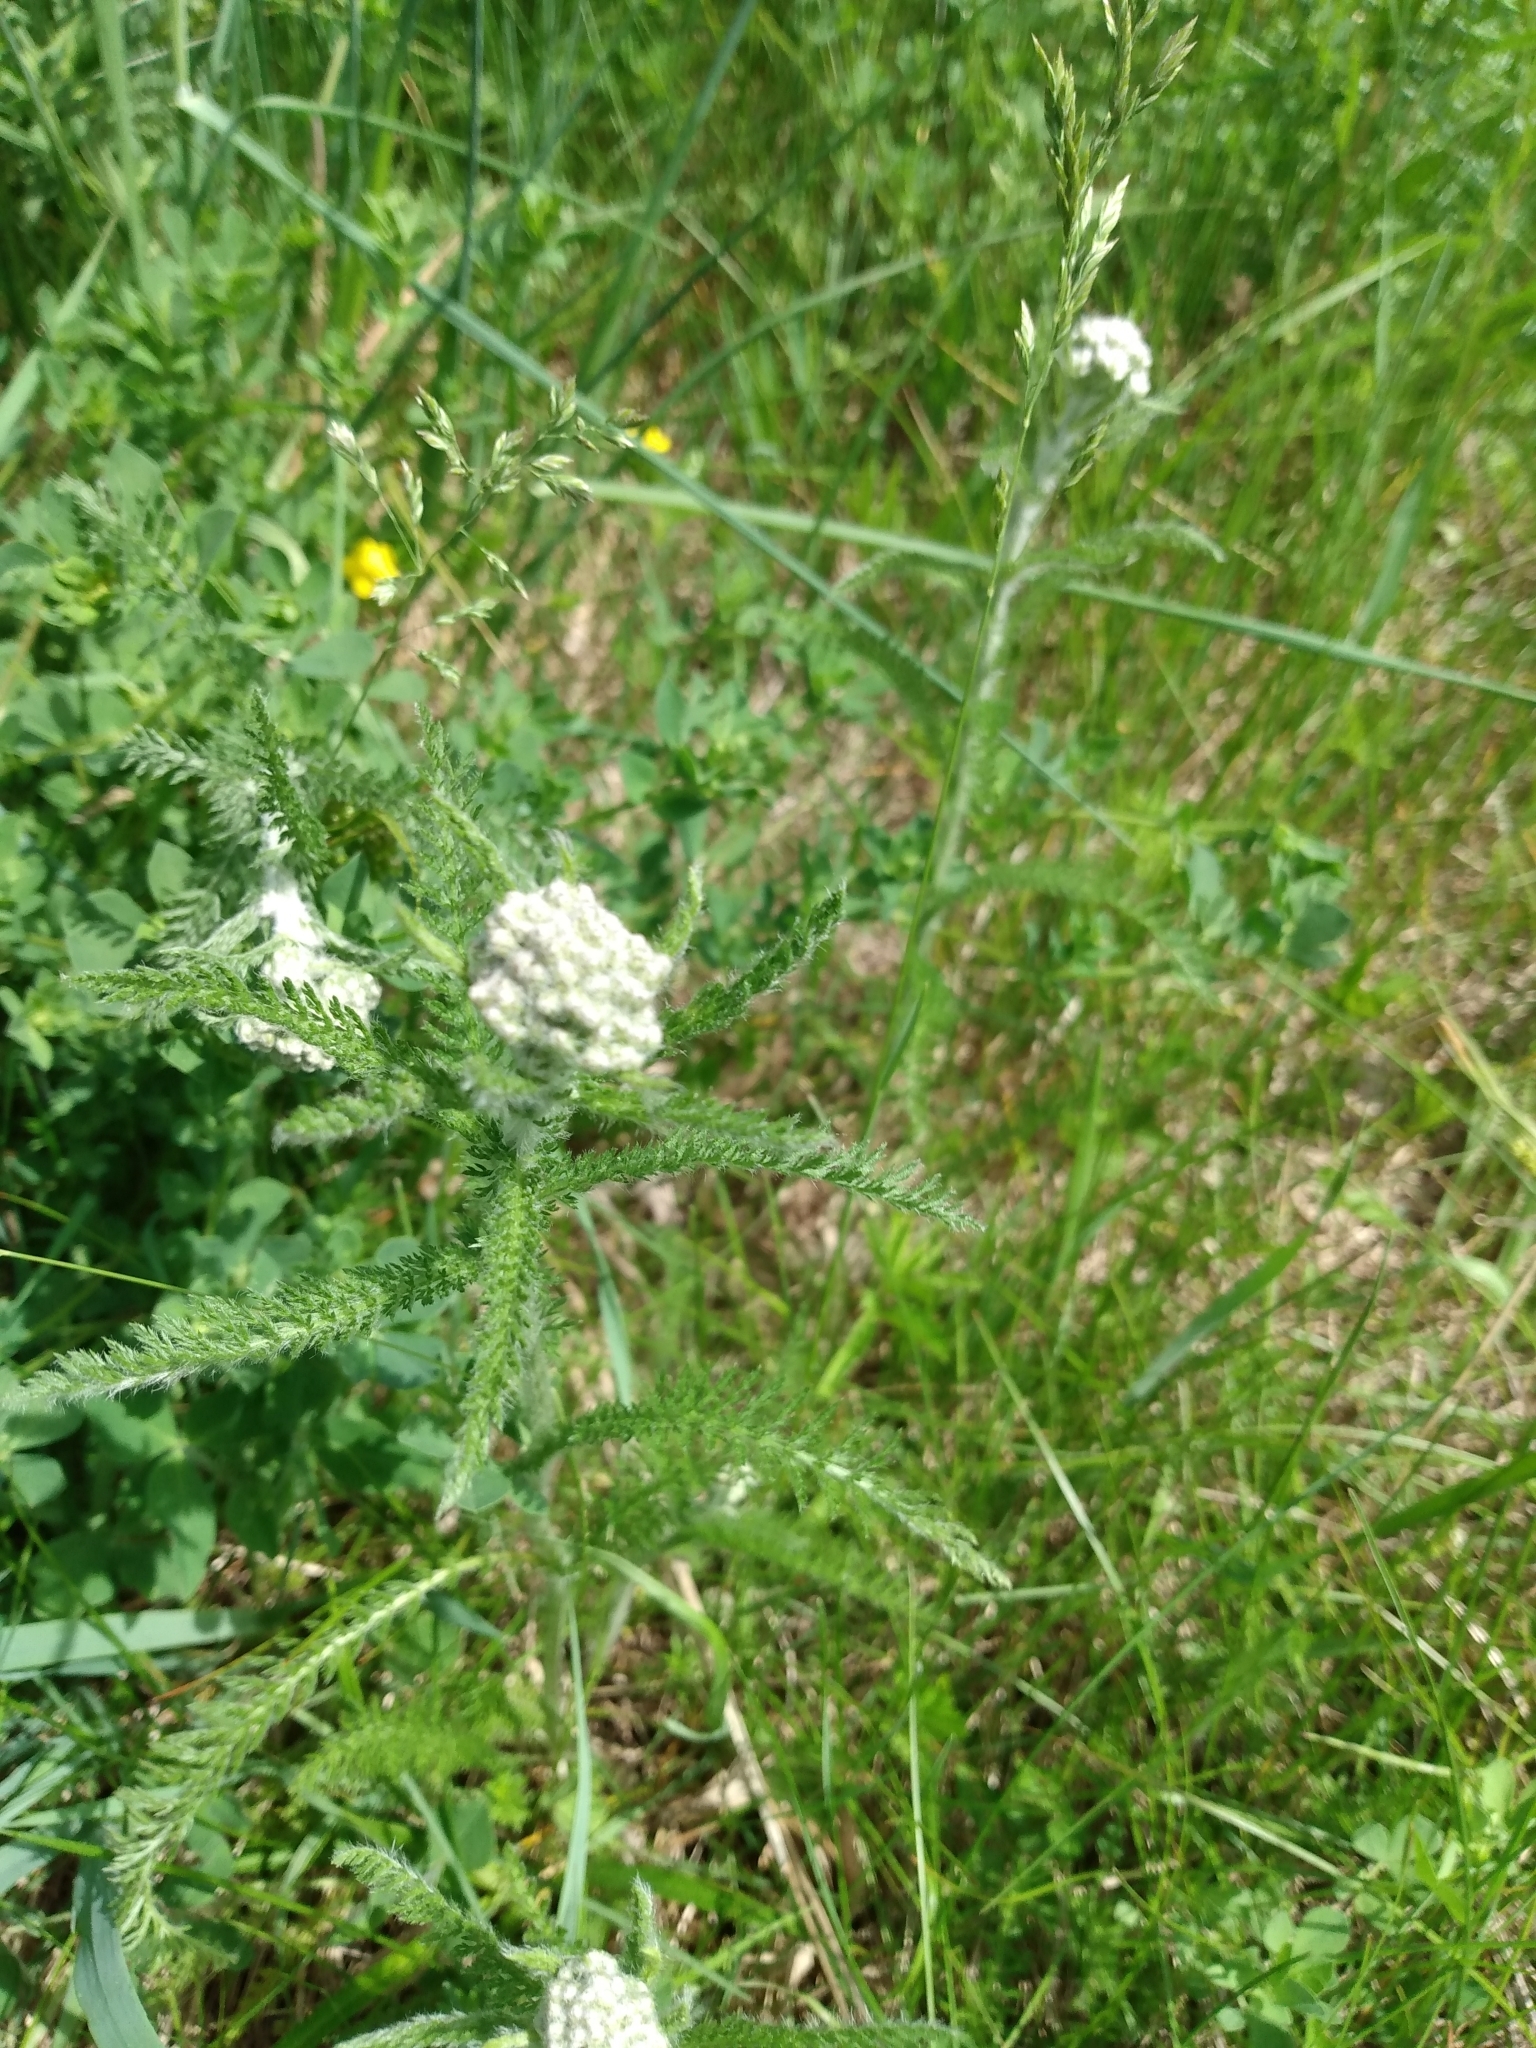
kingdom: Plantae
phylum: Tracheophyta
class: Magnoliopsida
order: Asterales
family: Asteraceae
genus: Achillea
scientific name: Achillea millefolium
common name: Yarrow
